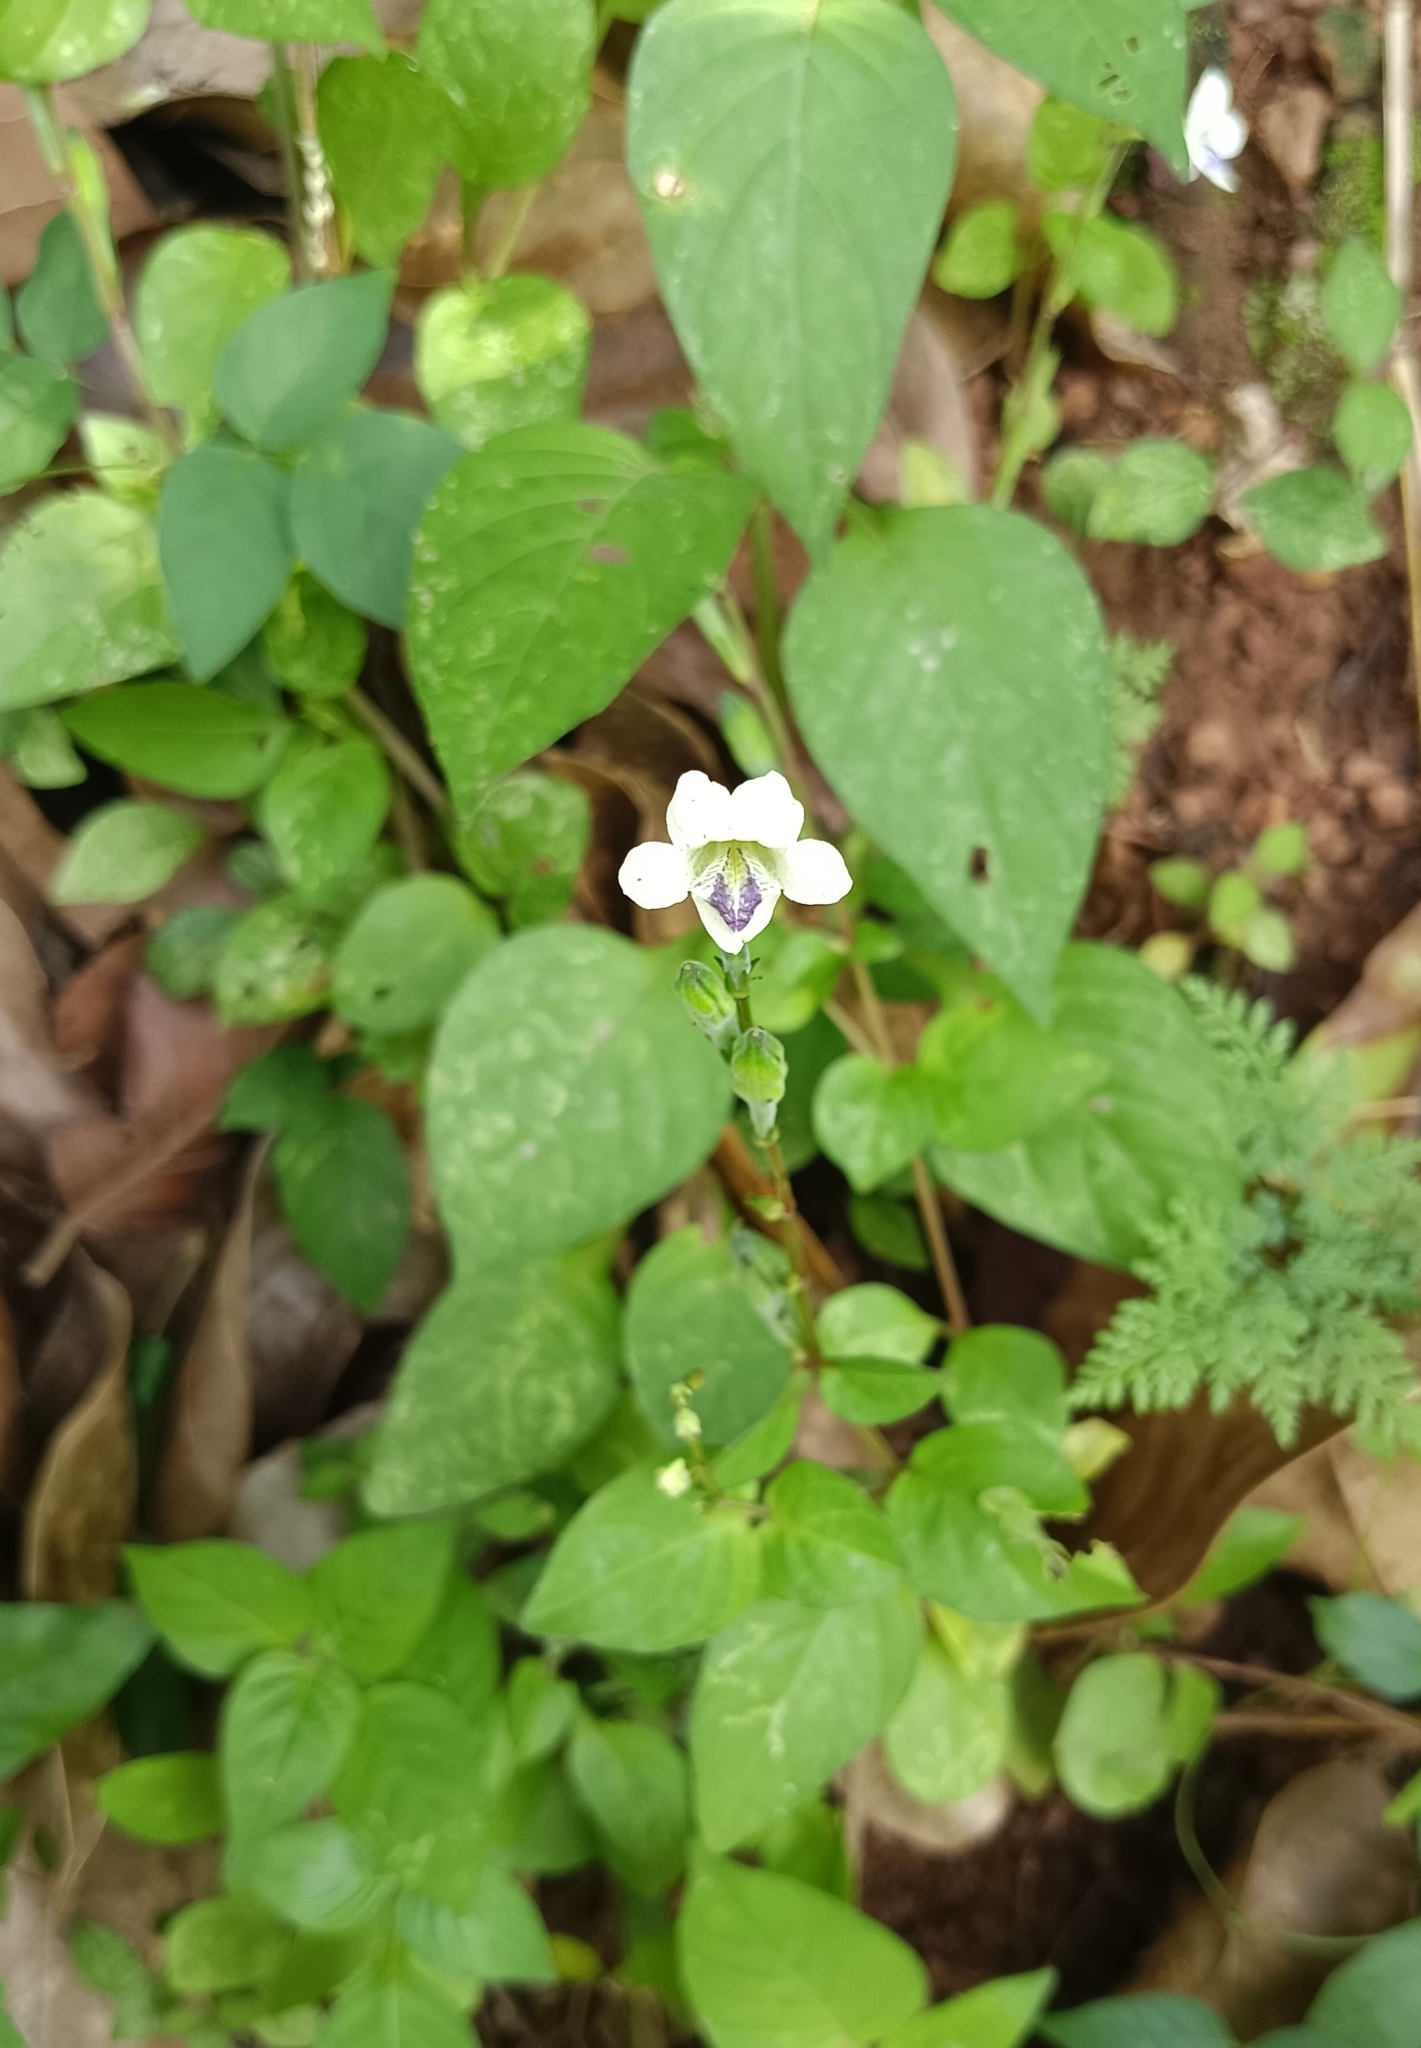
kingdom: Plantae
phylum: Tracheophyta
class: Magnoliopsida
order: Lamiales
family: Acanthaceae
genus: Asystasia
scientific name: Asystasia intrusa
